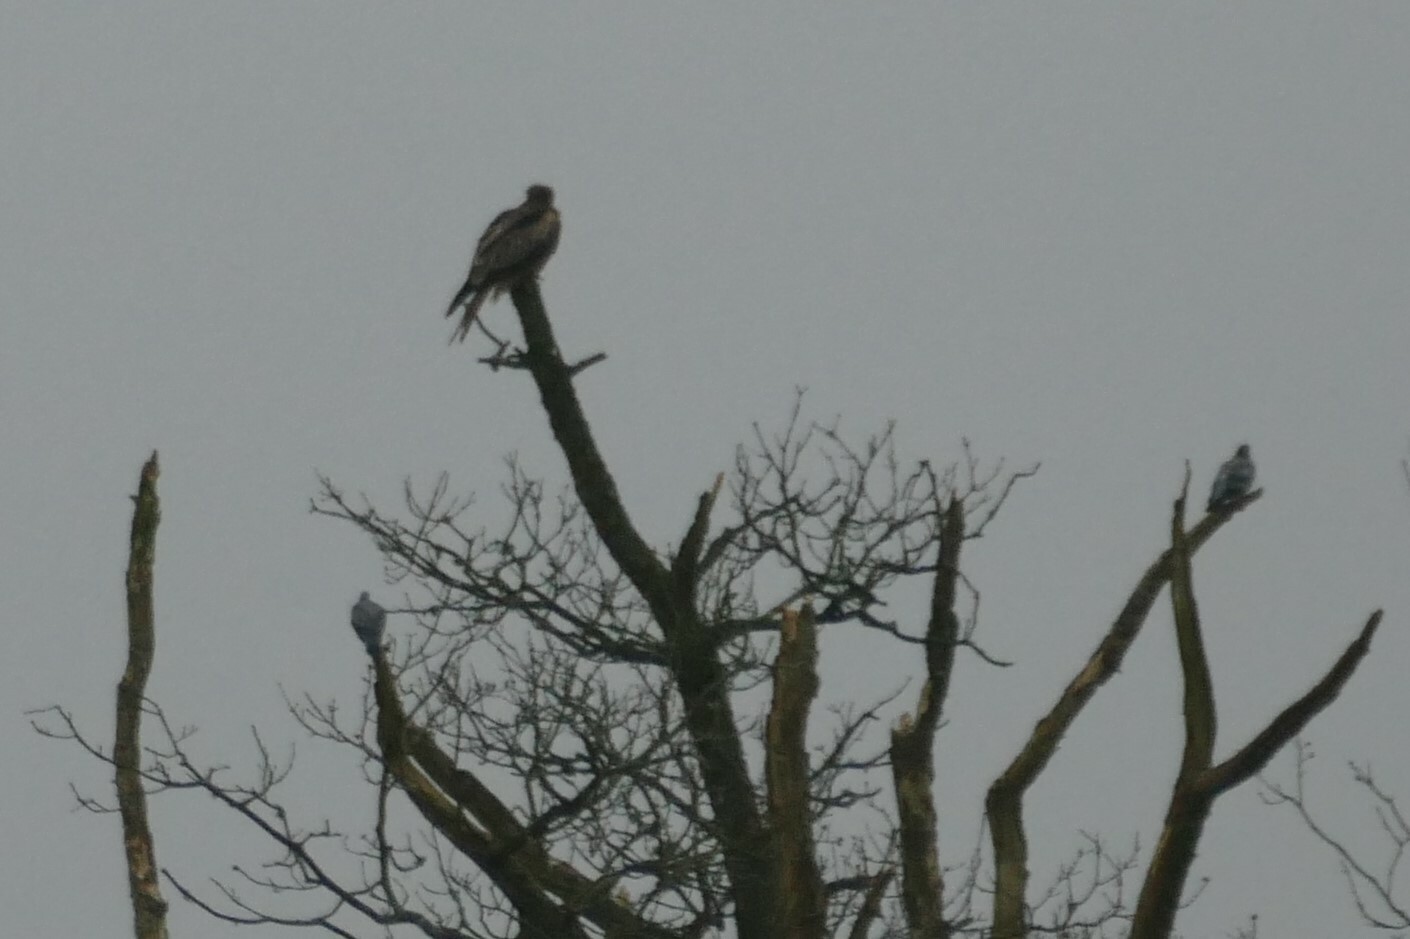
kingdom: Animalia
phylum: Chordata
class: Aves
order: Accipitriformes
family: Accipitridae
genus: Milvus
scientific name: Milvus milvus
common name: Red kite
